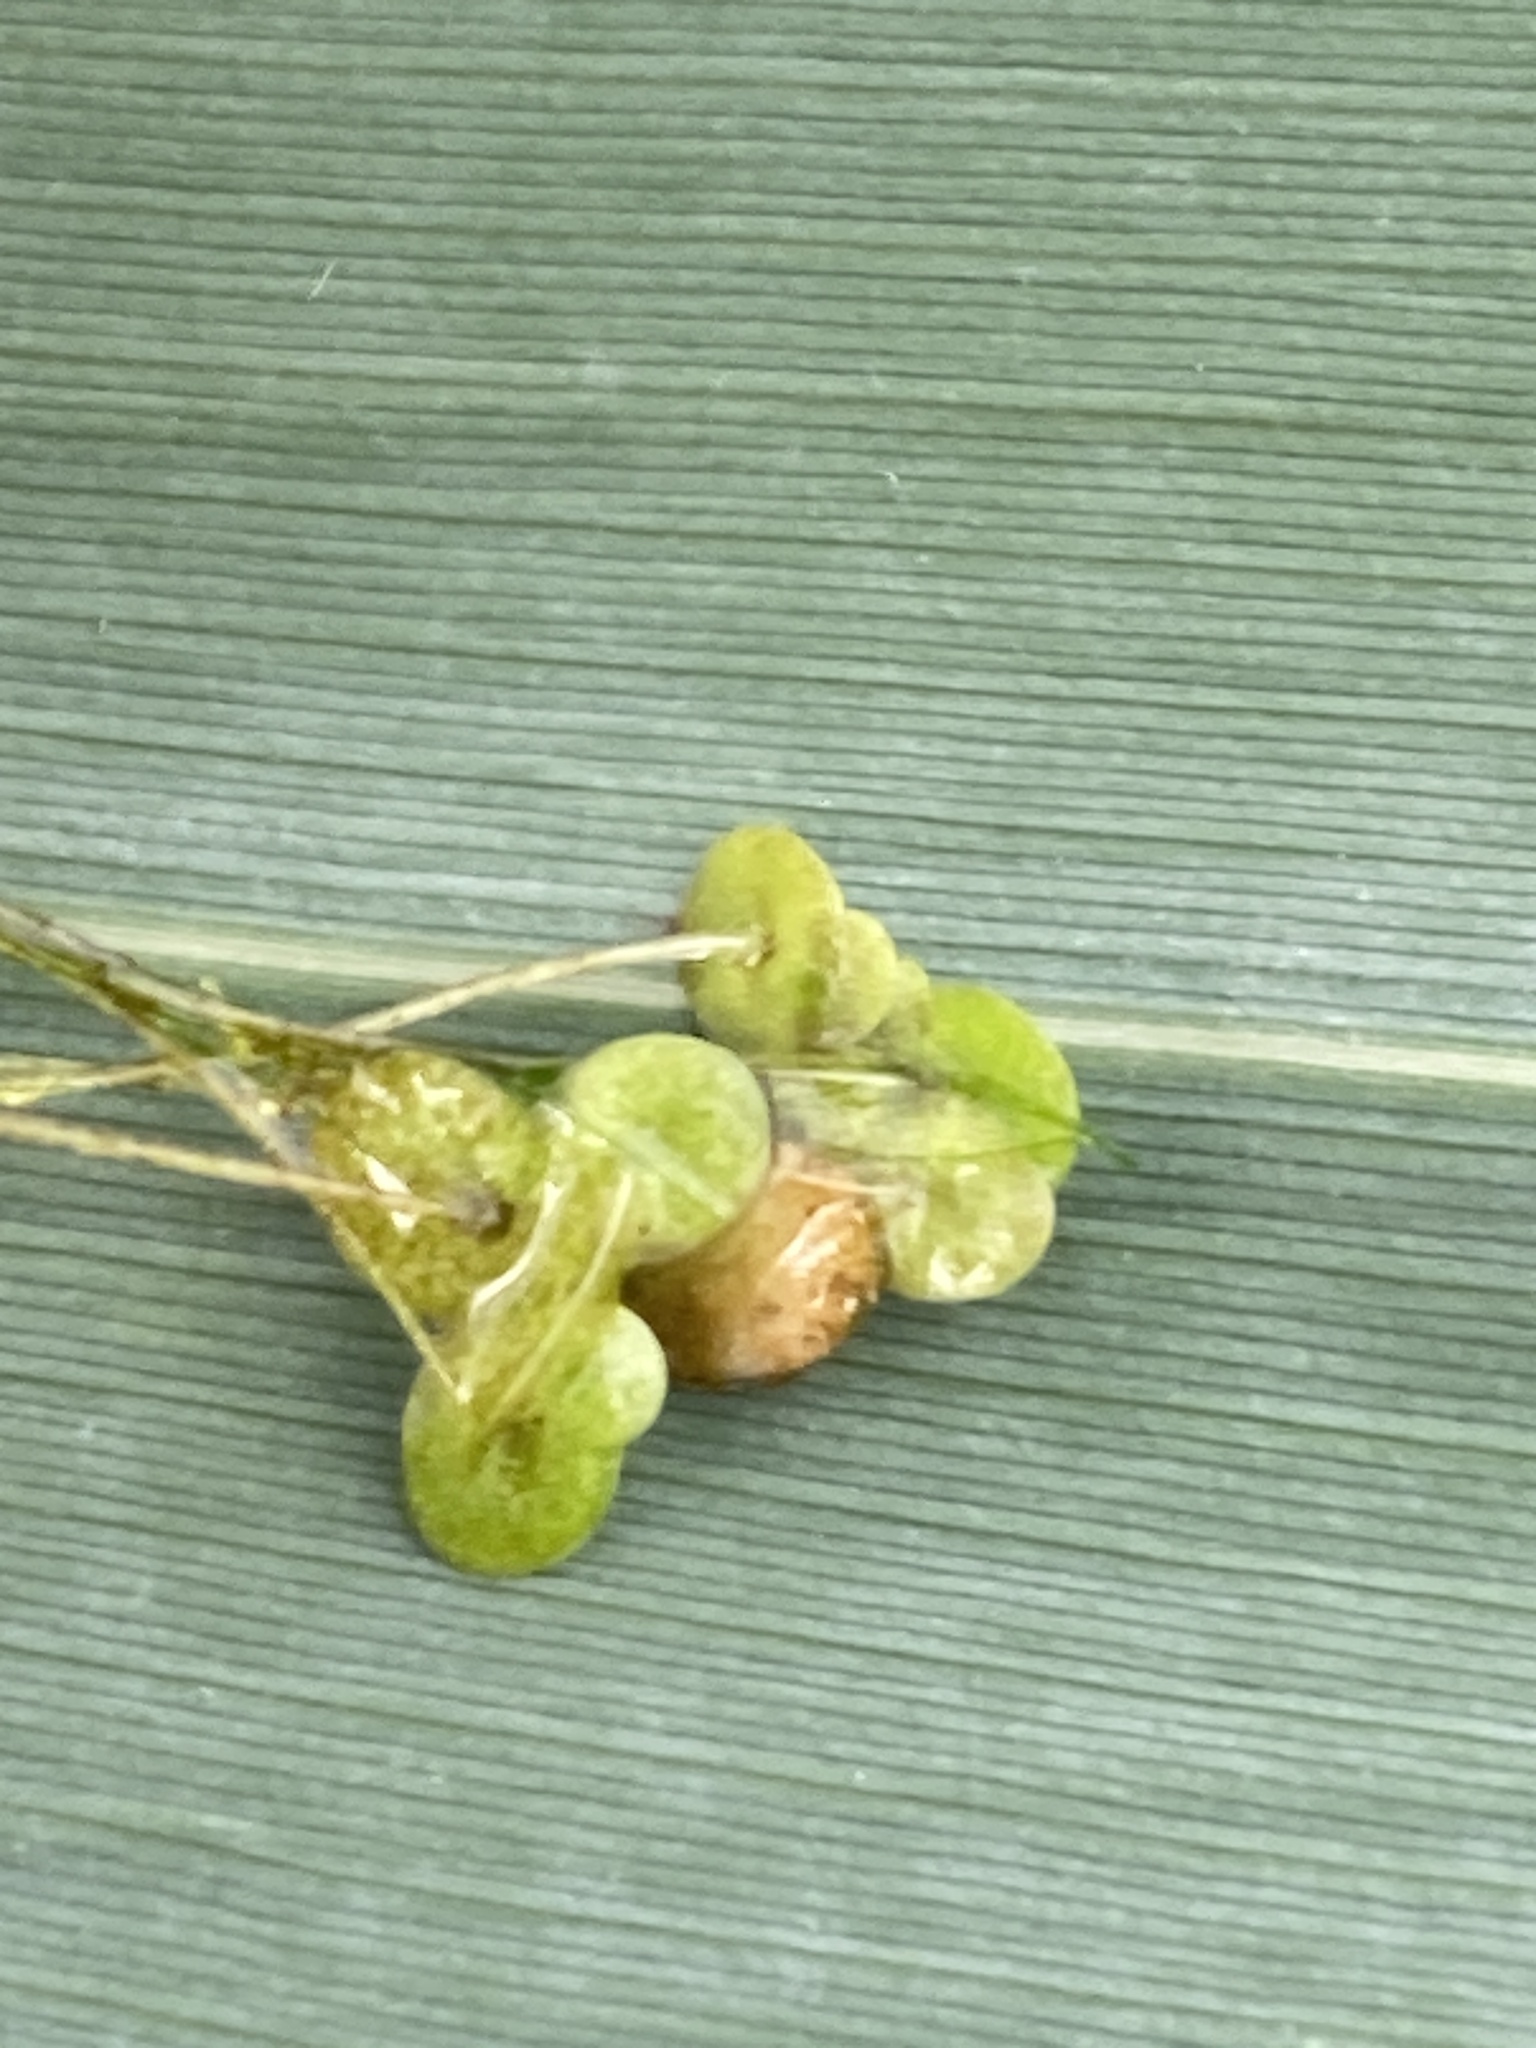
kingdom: Plantae
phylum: Tracheophyta
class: Liliopsida
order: Alismatales
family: Araceae
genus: Lemna
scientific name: Lemna turionifera
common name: Perennial duckweed
